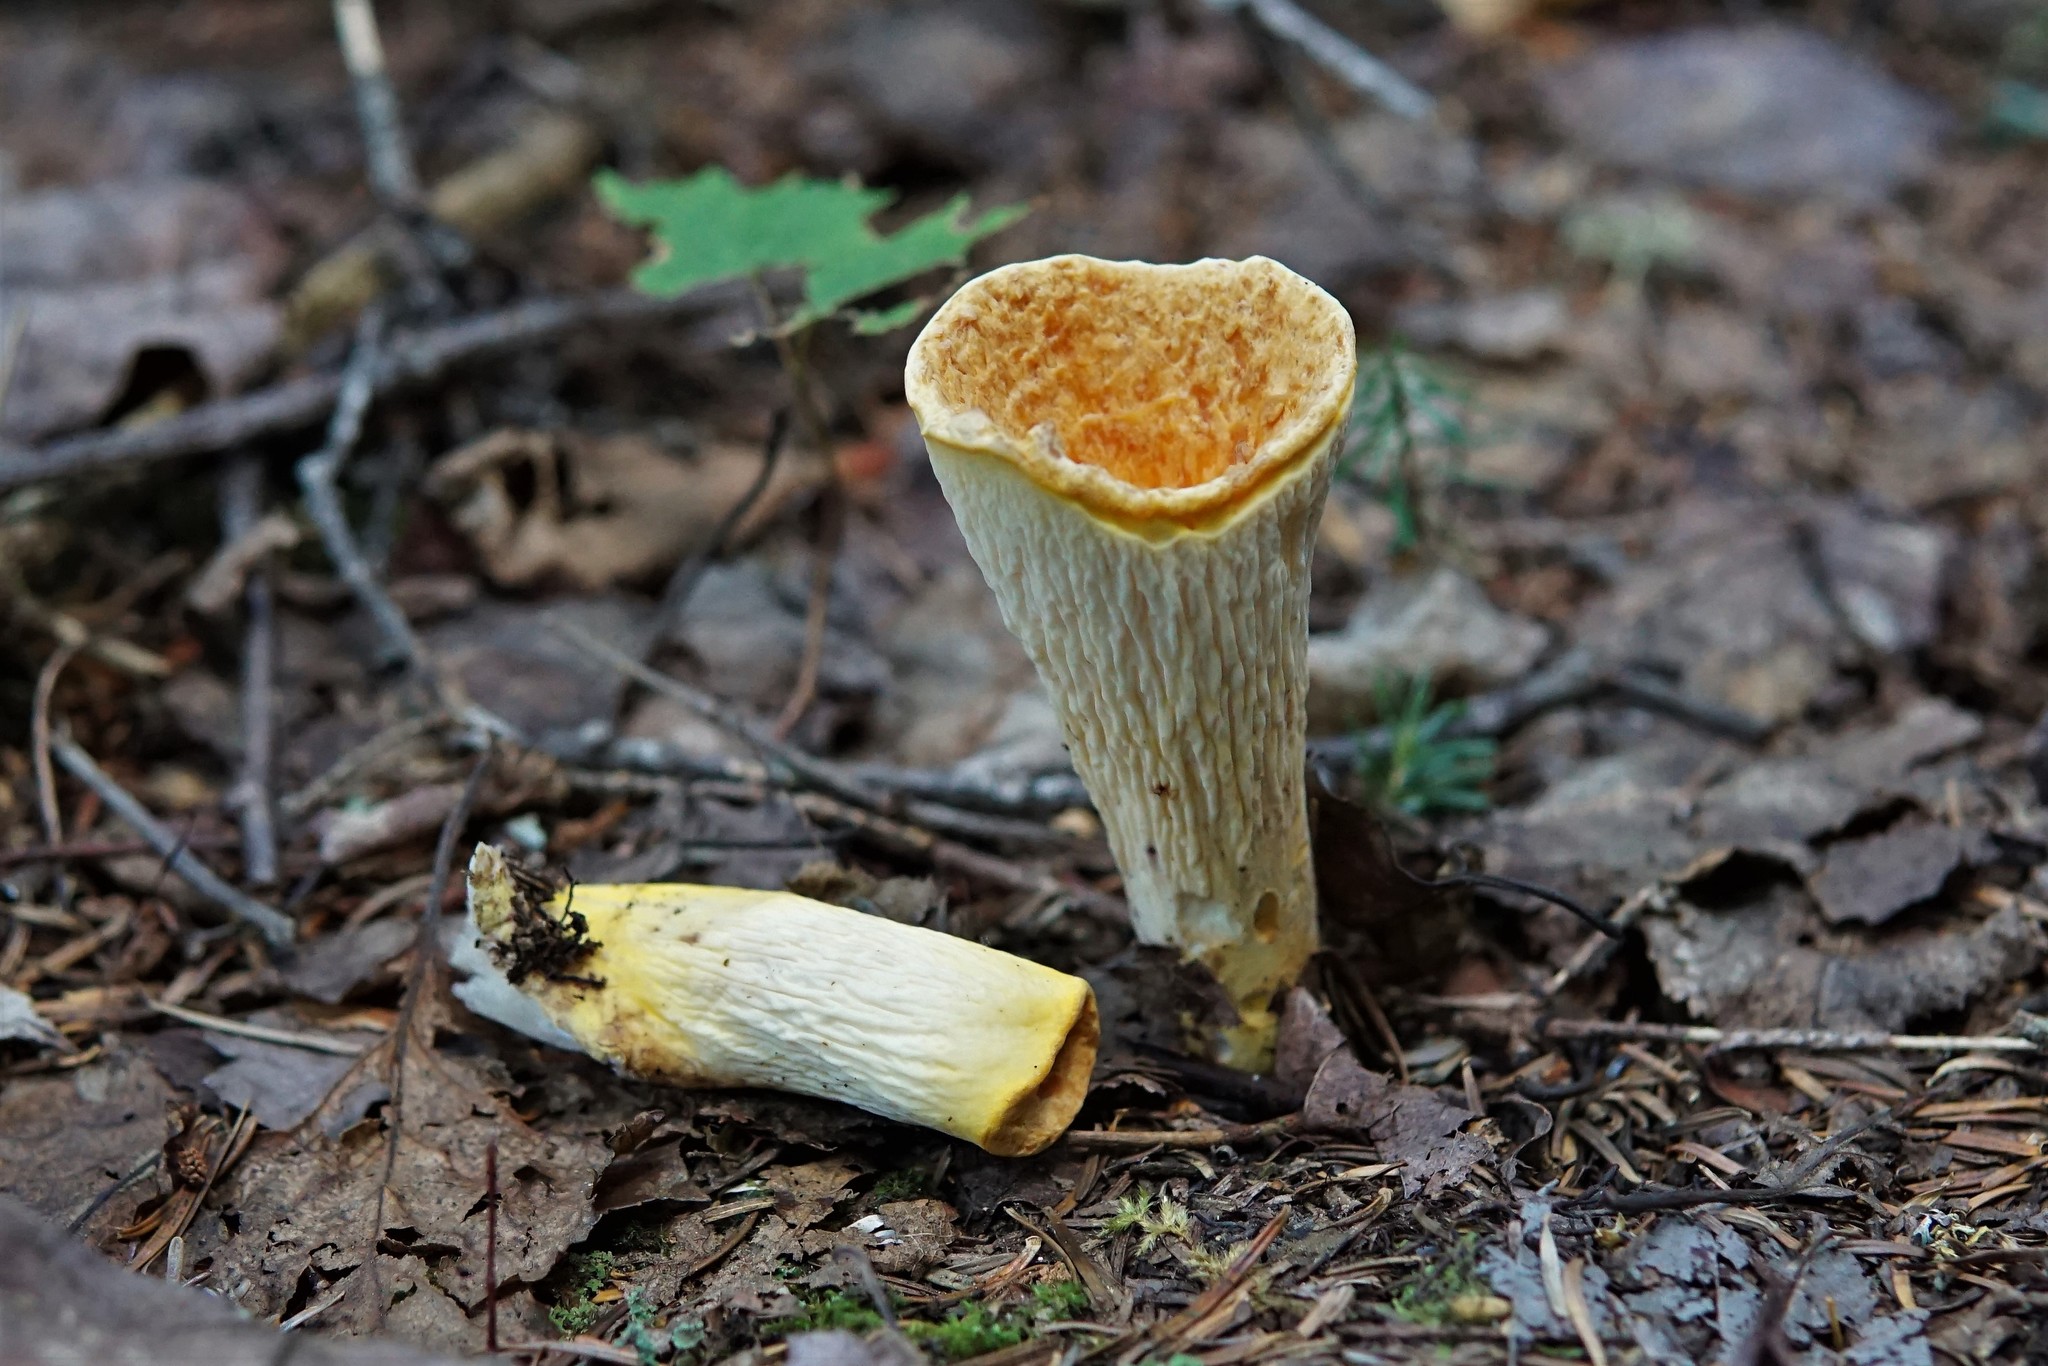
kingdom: Fungi
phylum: Basidiomycota
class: Agaricomycetes
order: Gomphales
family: Gomphaceae
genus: Turbinellus
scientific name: Turbinellus floccosus
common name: Scaly chanterelle
